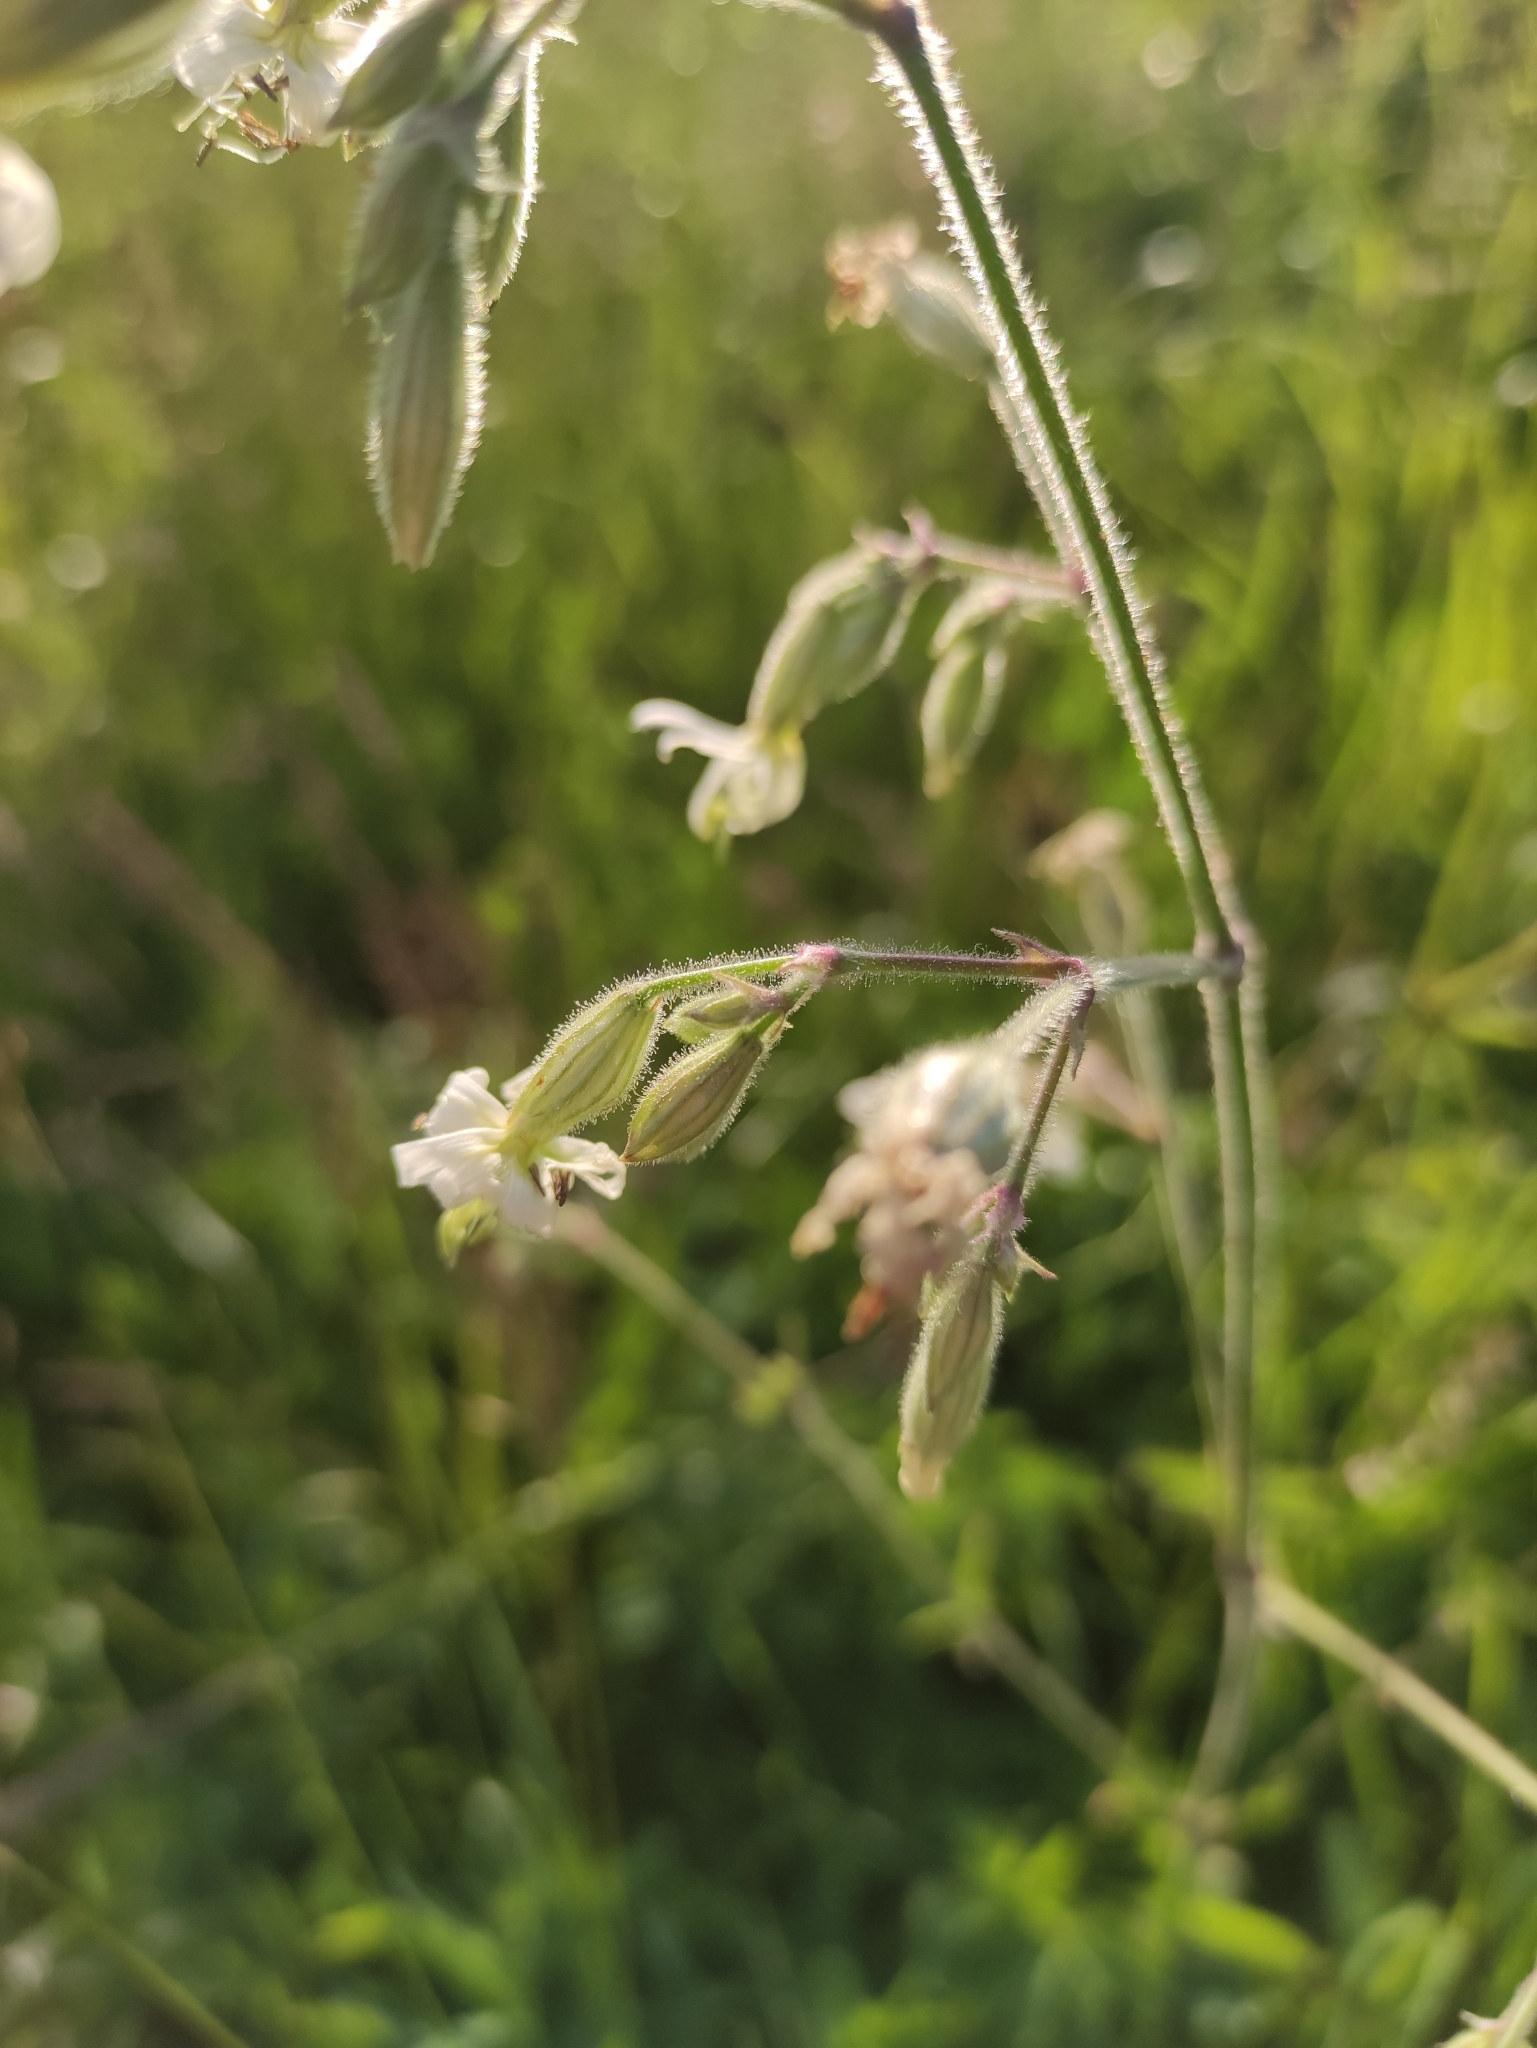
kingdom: Plantae
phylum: Tracheophyta
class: Magnoliopsida
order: Caryophyllales
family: Caryophyllaceae
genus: Silene
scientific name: Silene nutans
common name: Nottingham catchfly
